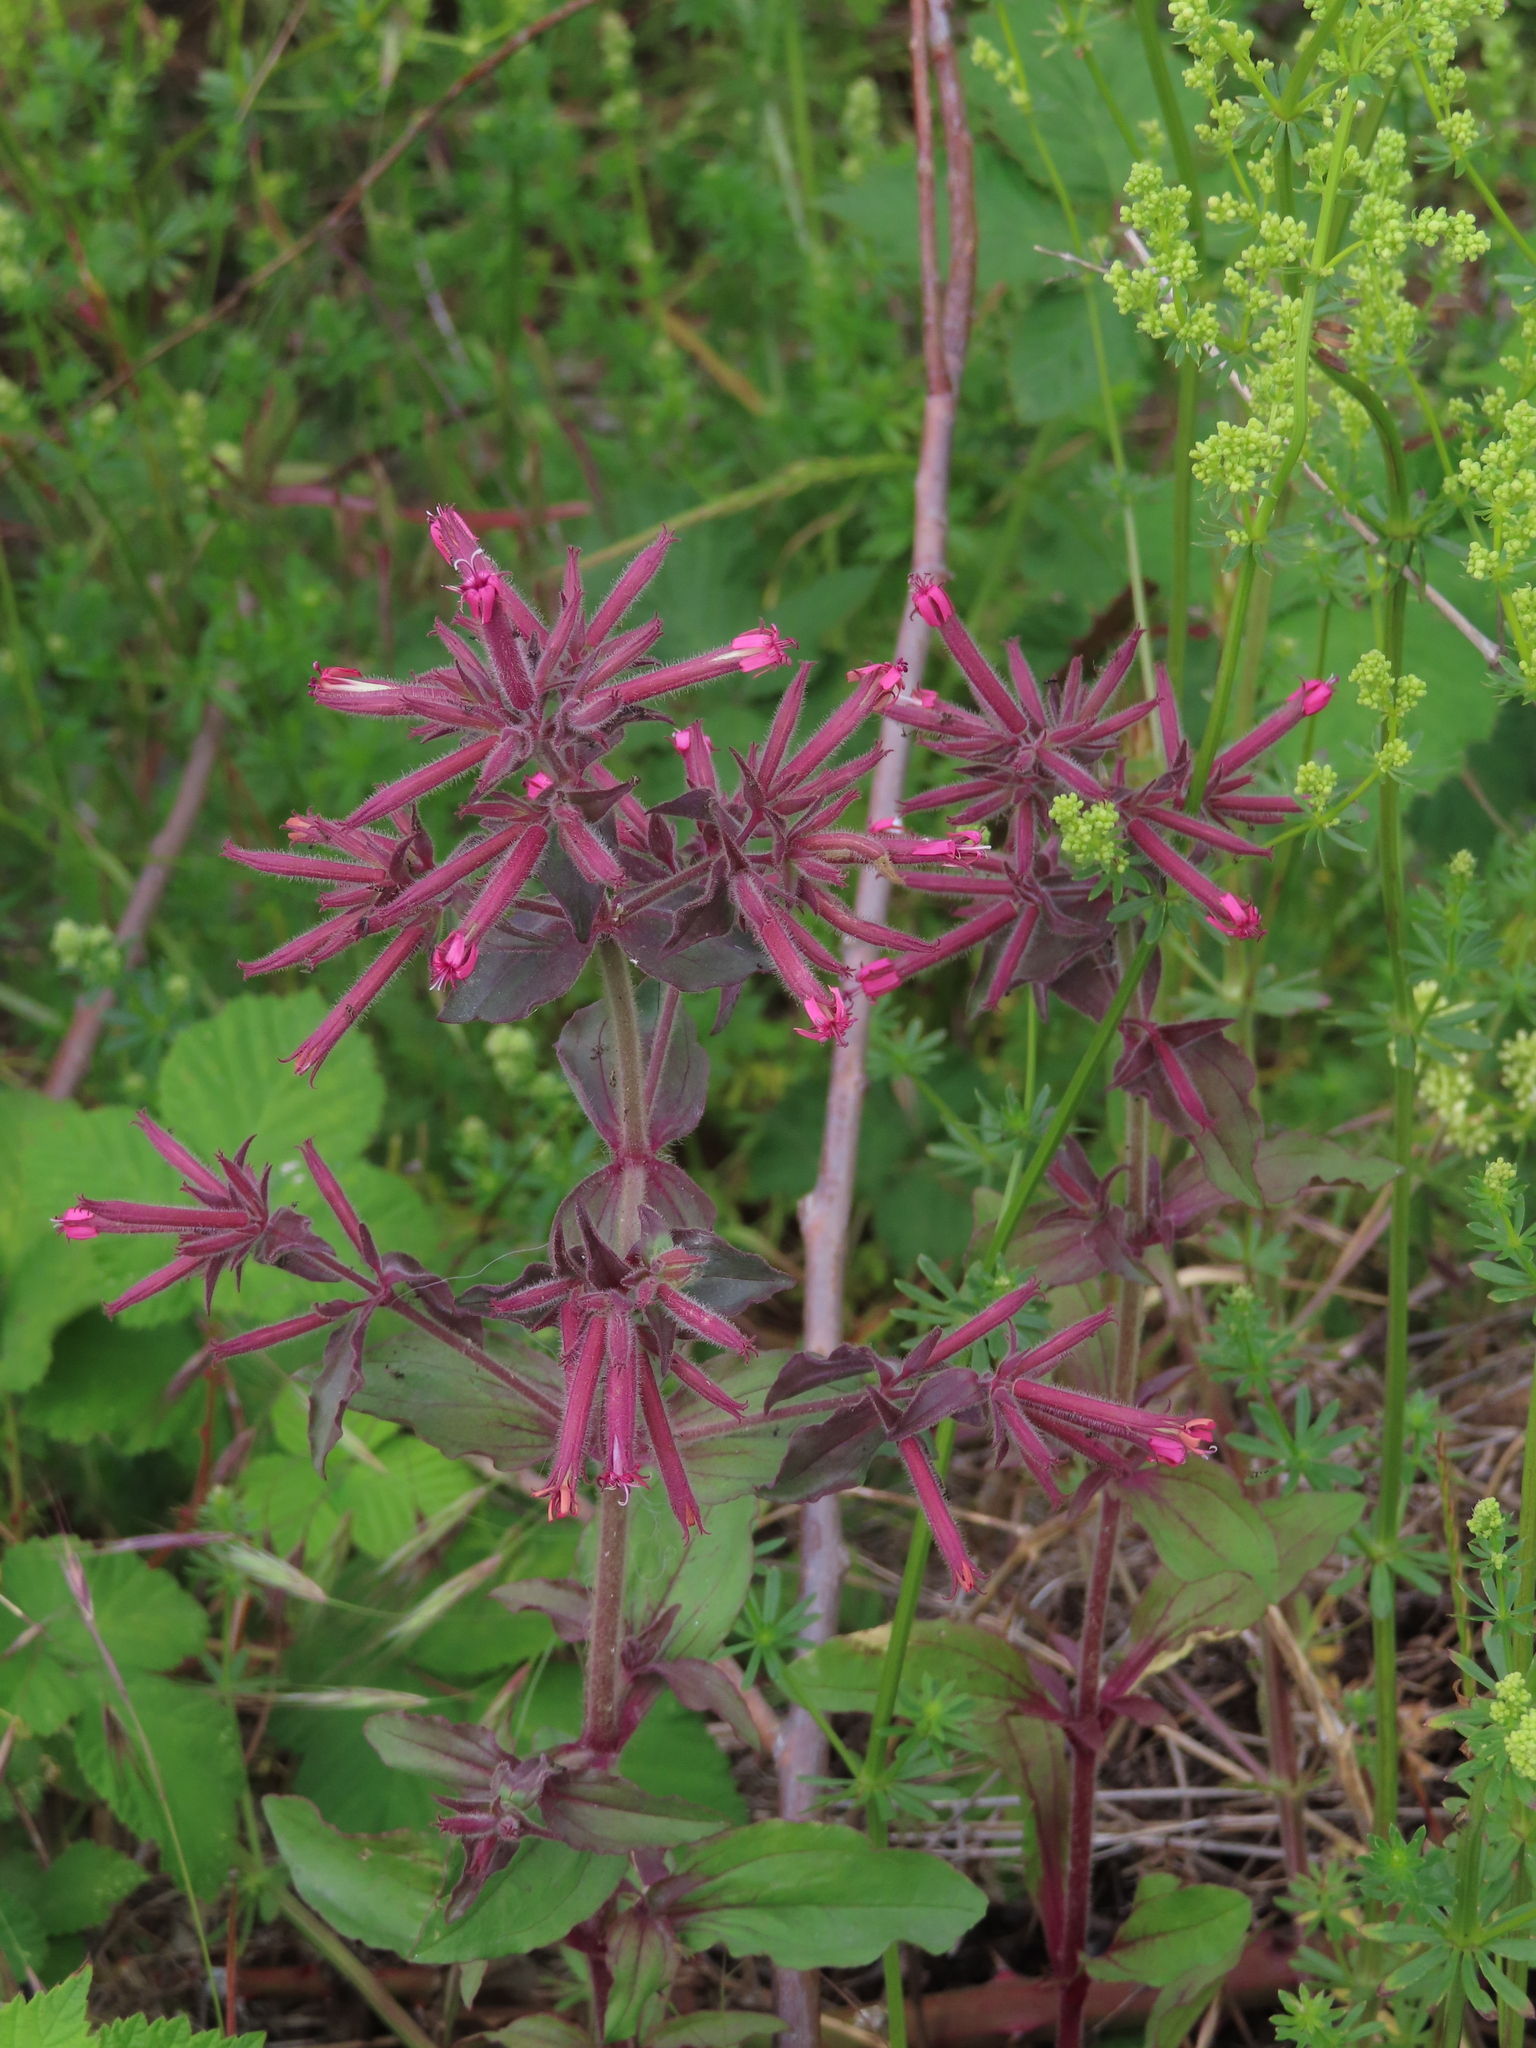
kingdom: Plantae
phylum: Tracheophyta
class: Magnoliopsida
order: Caryophyllales
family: Caryophyllaceae
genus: Saponaria
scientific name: Saponaria glutinosa
